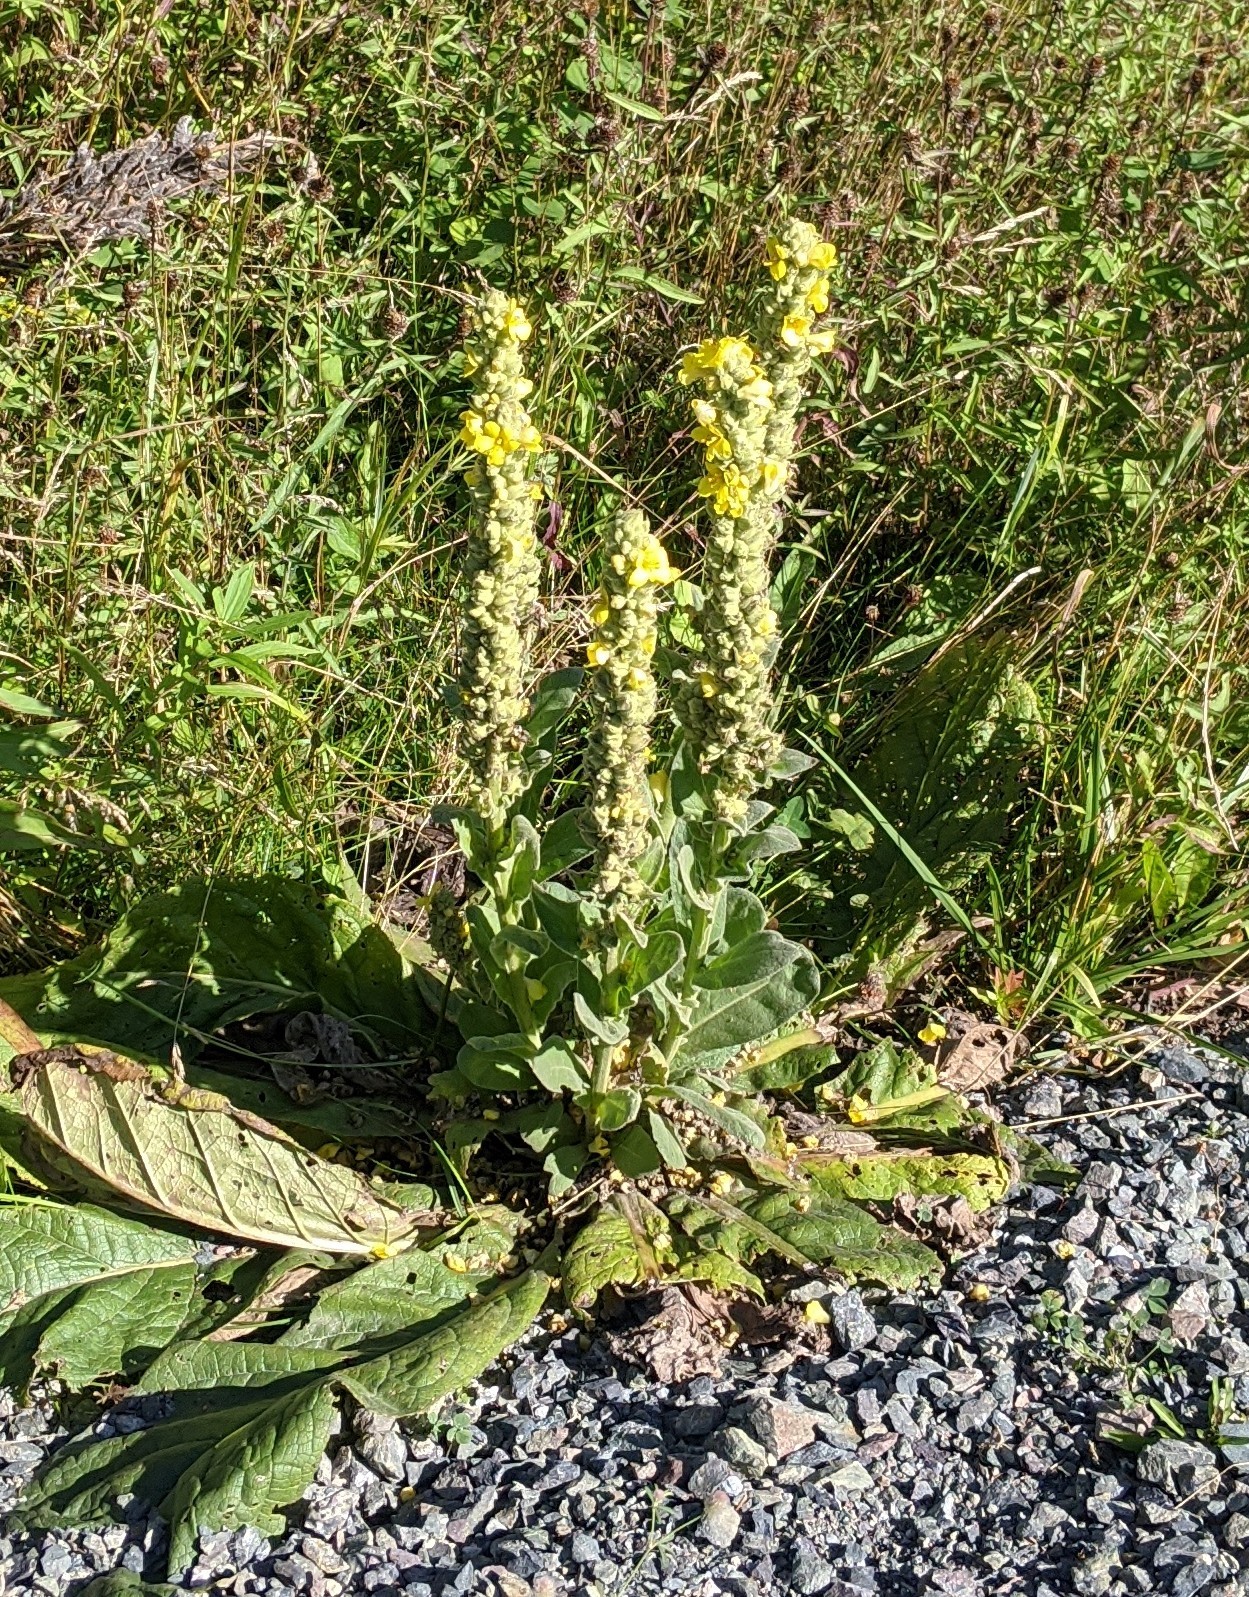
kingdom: Plantae
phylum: Tracheophyta
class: Magnoliopsida
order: Lamiales
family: Scrophulariaceae
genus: Verbascum
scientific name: Verbascum thapsus
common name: Common mullein
